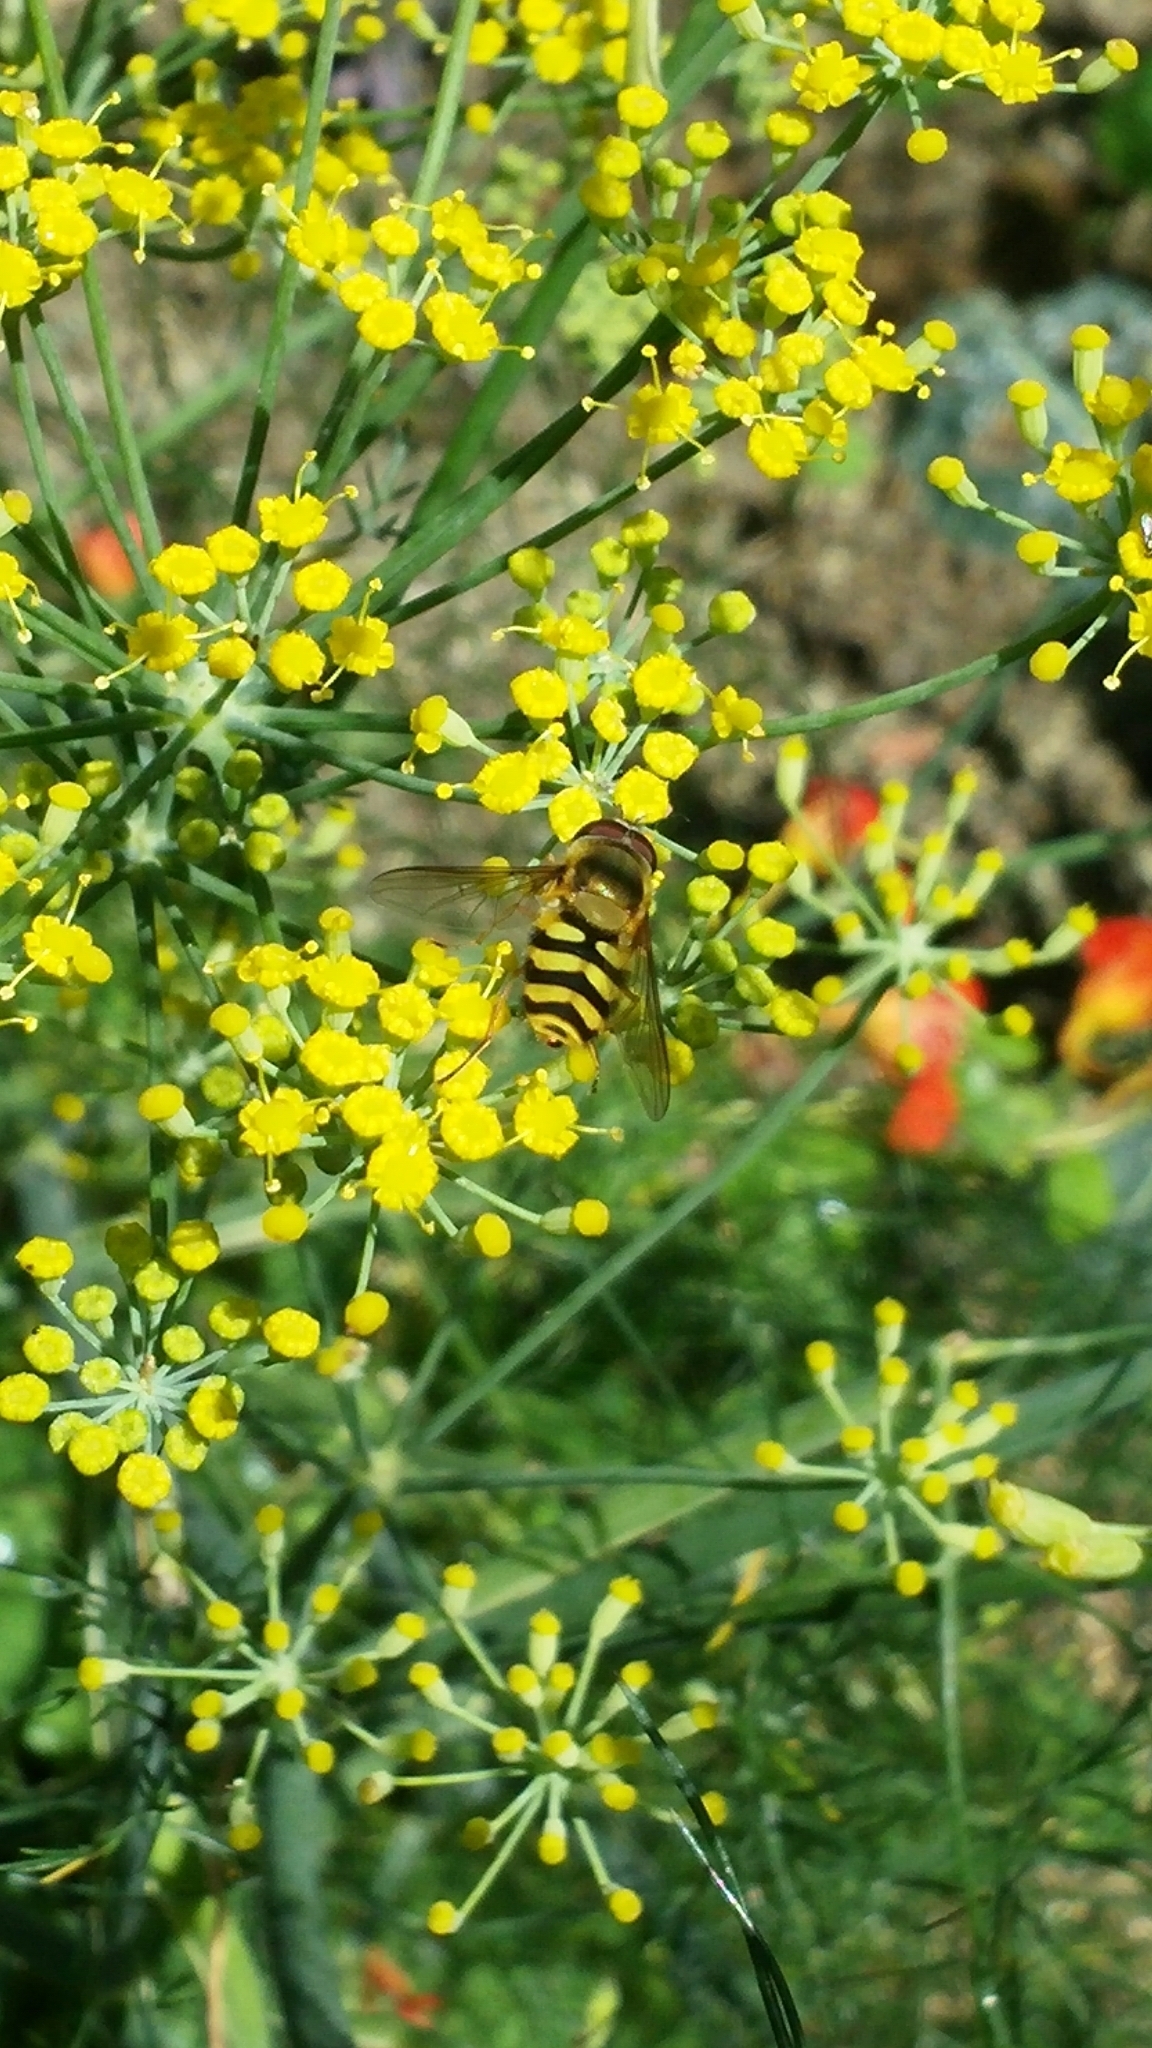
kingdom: Animalia
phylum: Arthropoda
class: Insecta
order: Diptera
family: Syrphidae
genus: Syrphus
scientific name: Syrphus
